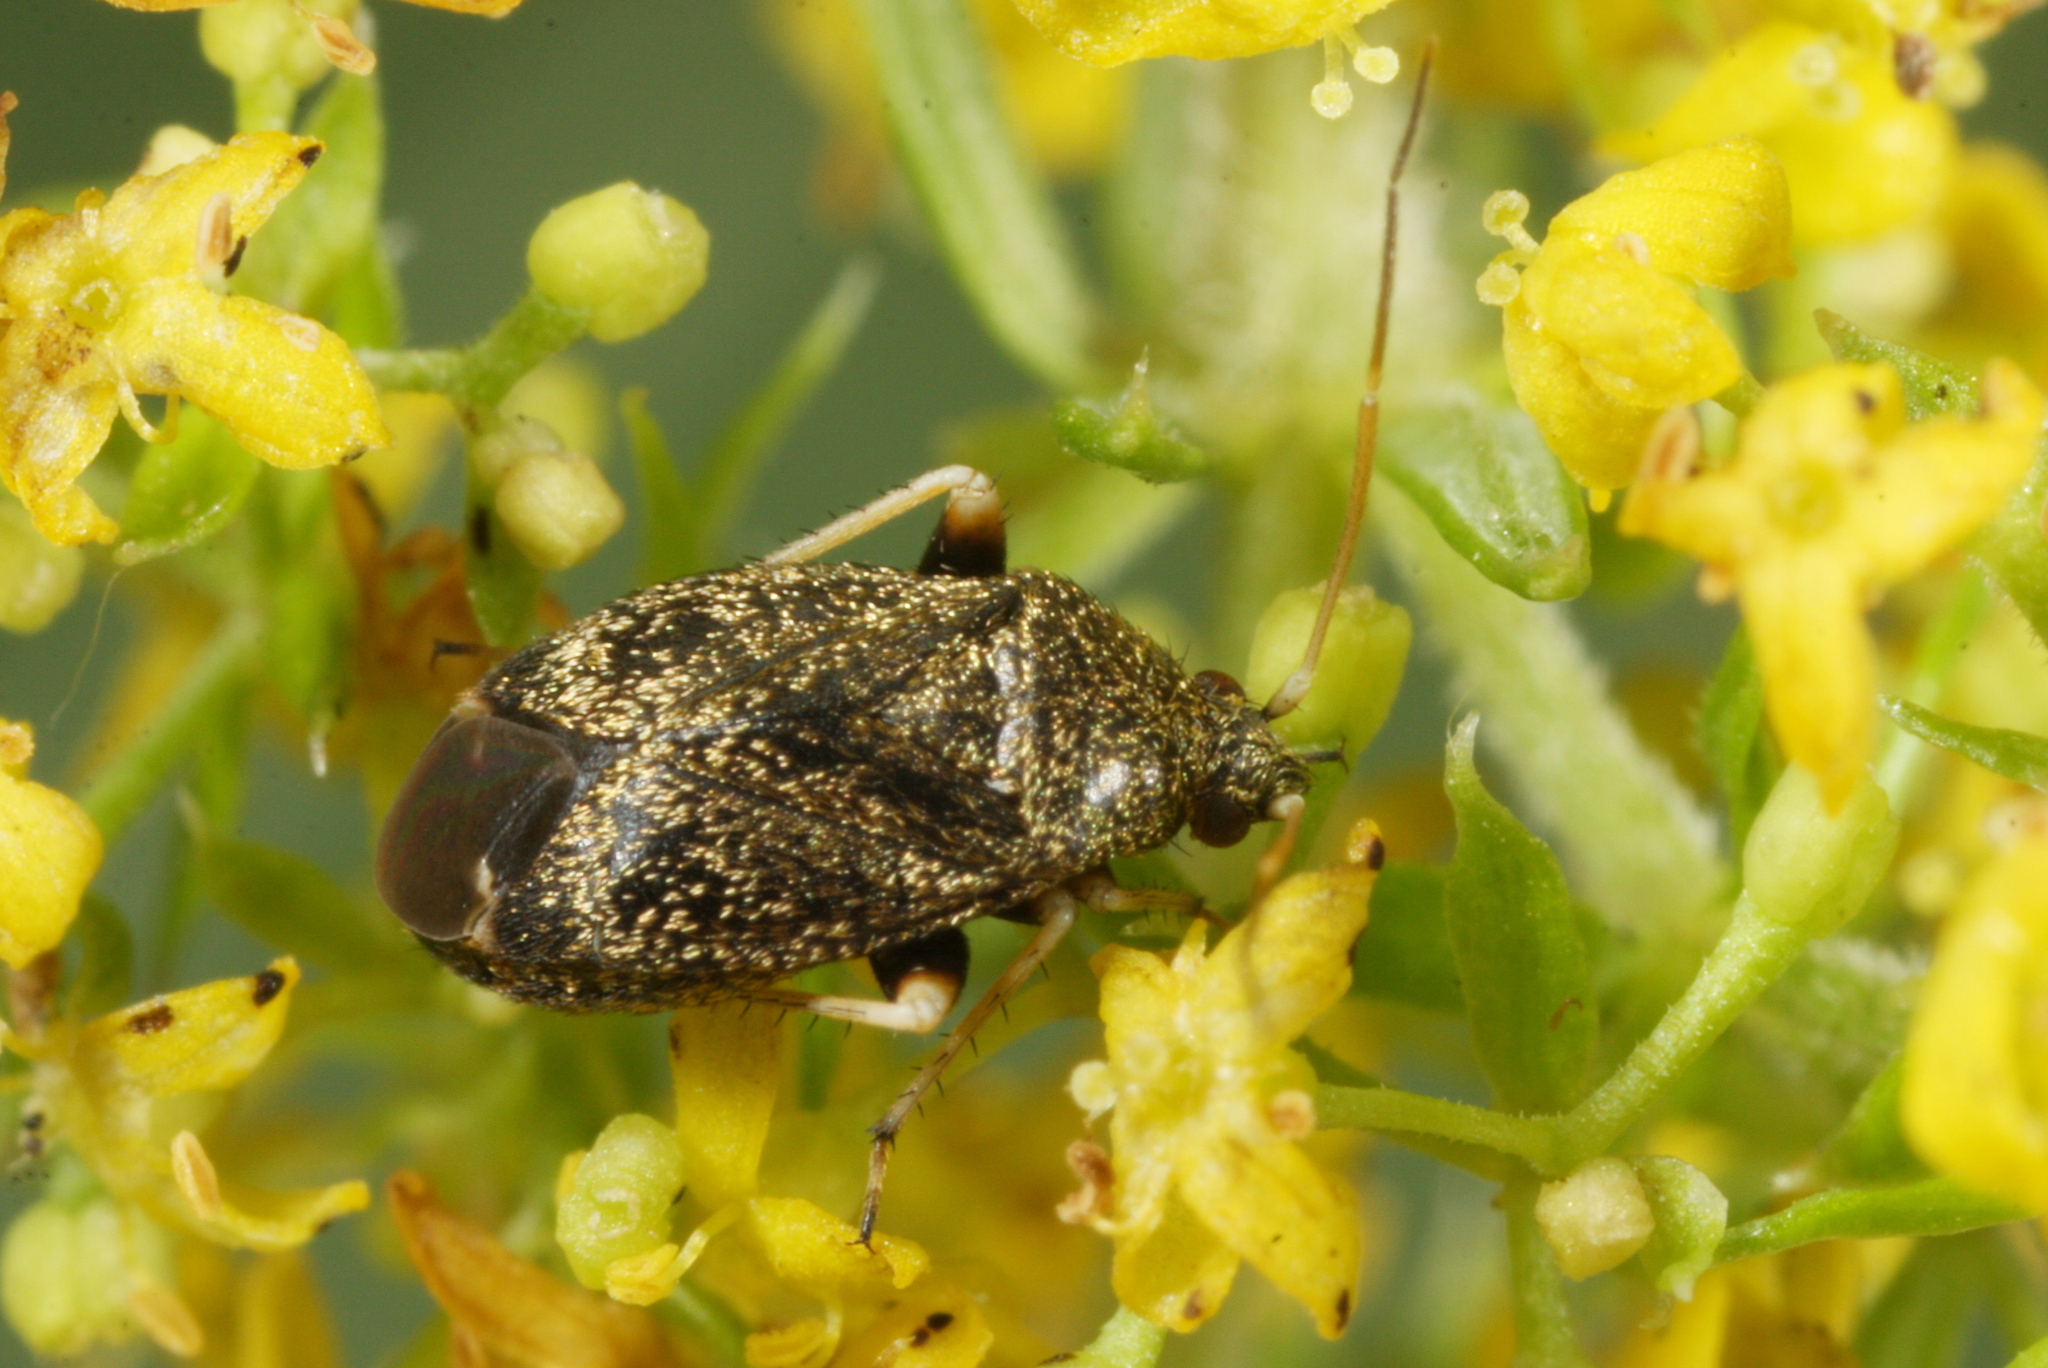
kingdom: Animalia
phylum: Arthropoda
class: Insecta
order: Hemiptera
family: Miridae
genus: Criocoris
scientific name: Criocoris crassicornis
